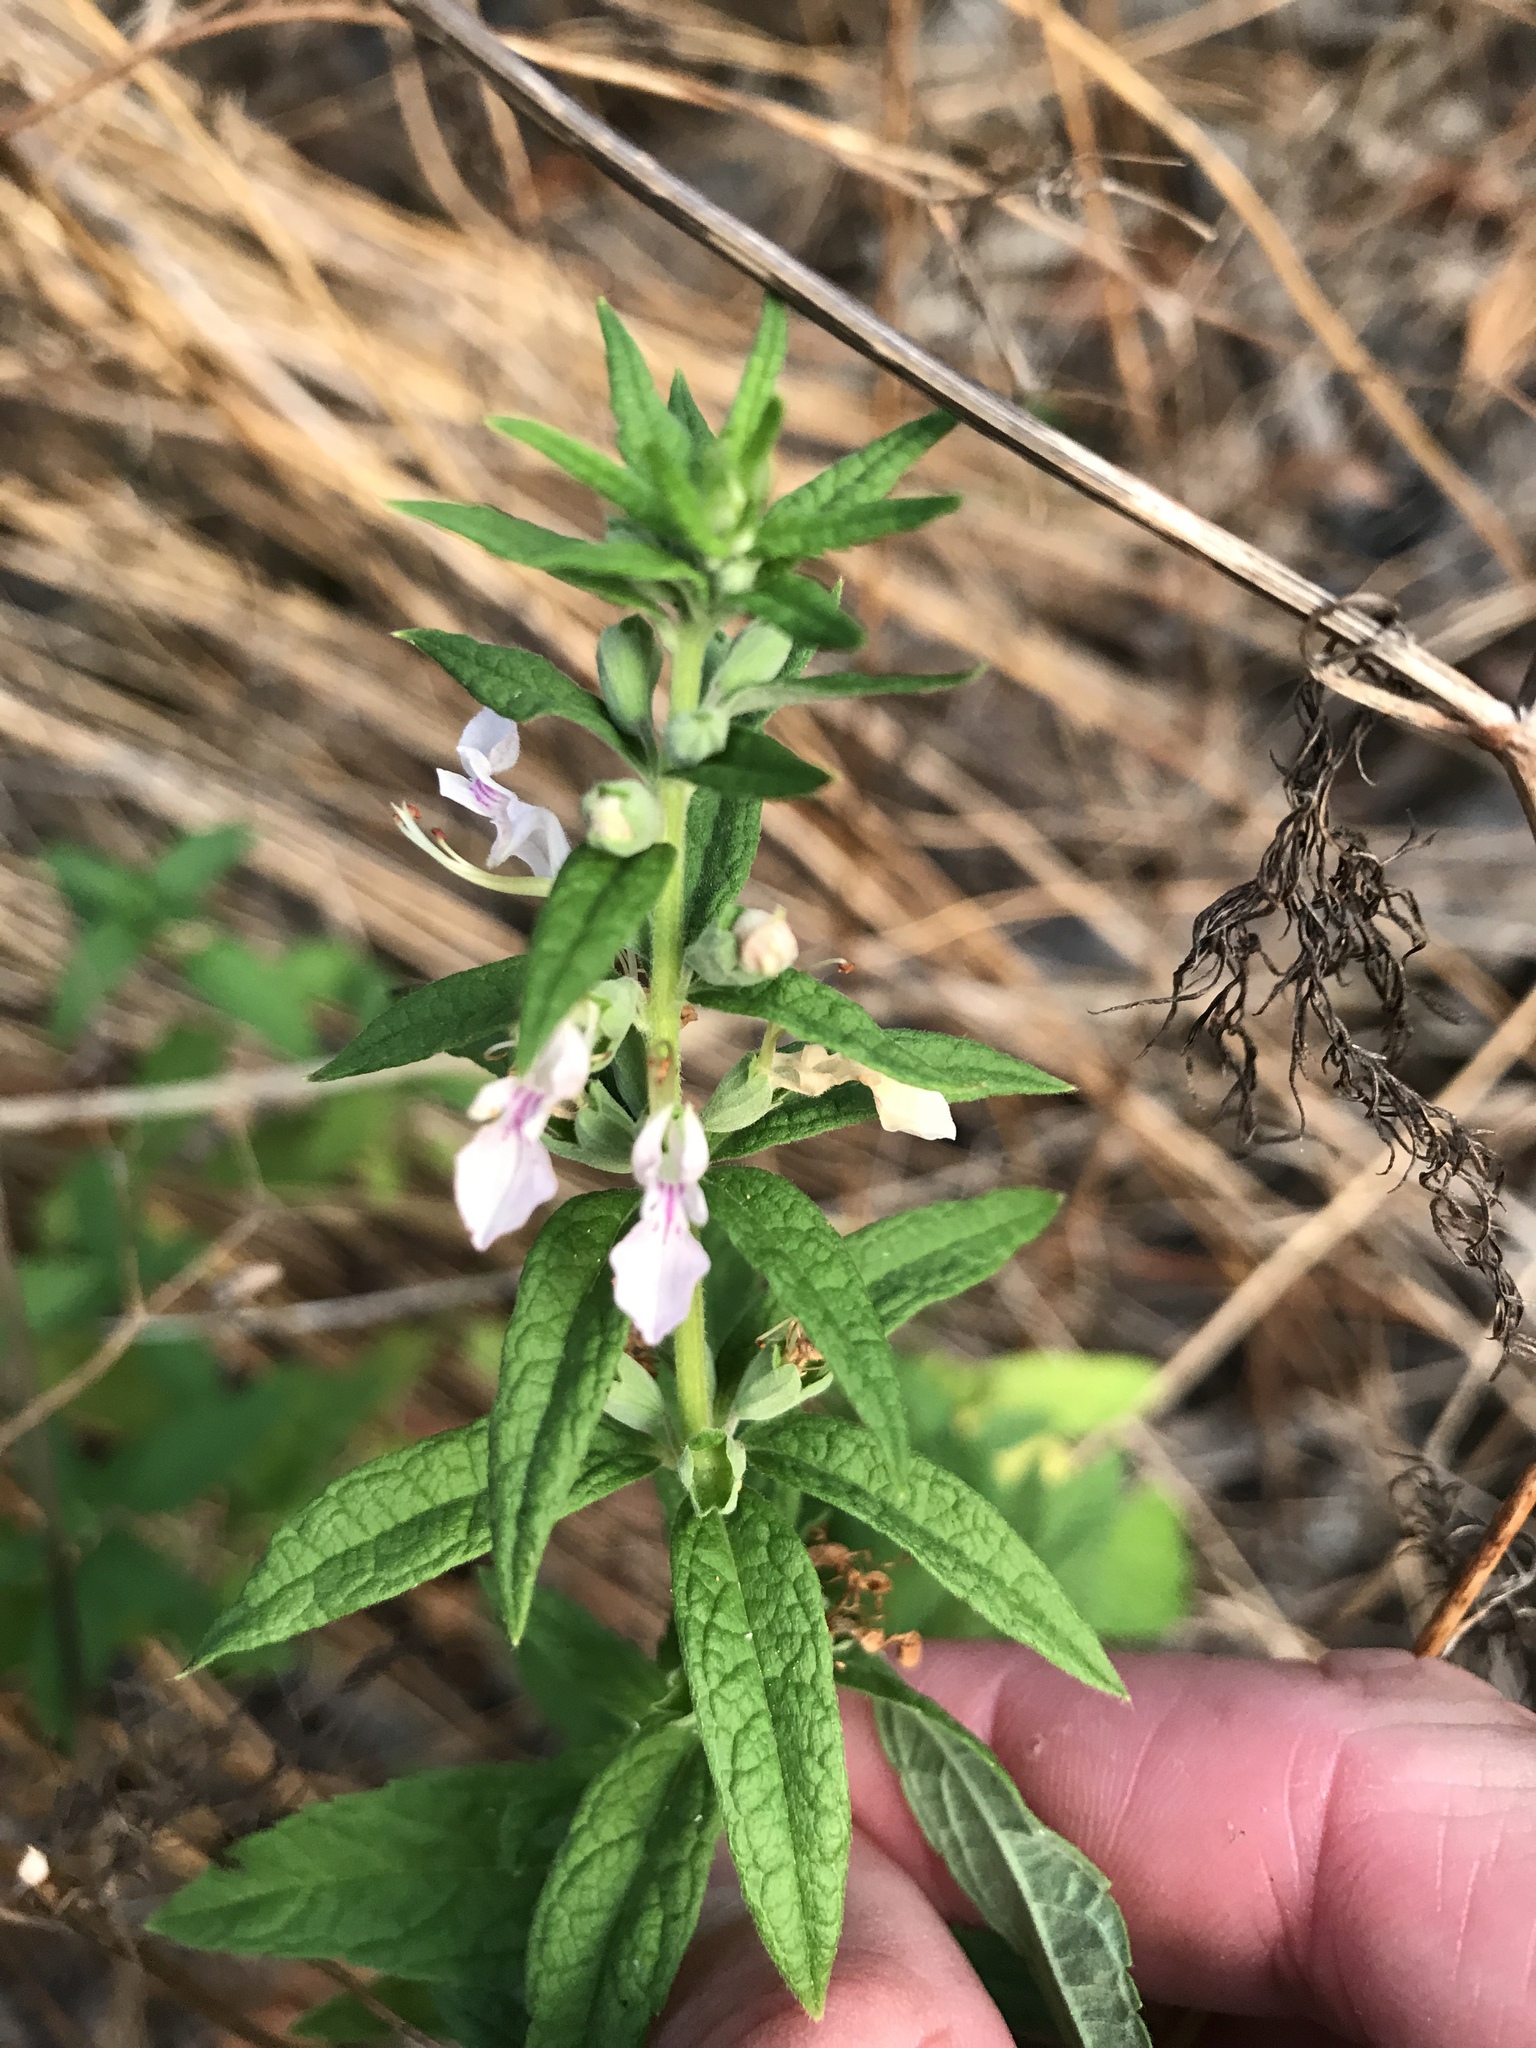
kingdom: Plantae
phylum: Tracheophyta
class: Magnoliopsida
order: Lamiales
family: Lamiaceae
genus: Teucrium
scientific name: Teucrium canadense
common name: American germander
